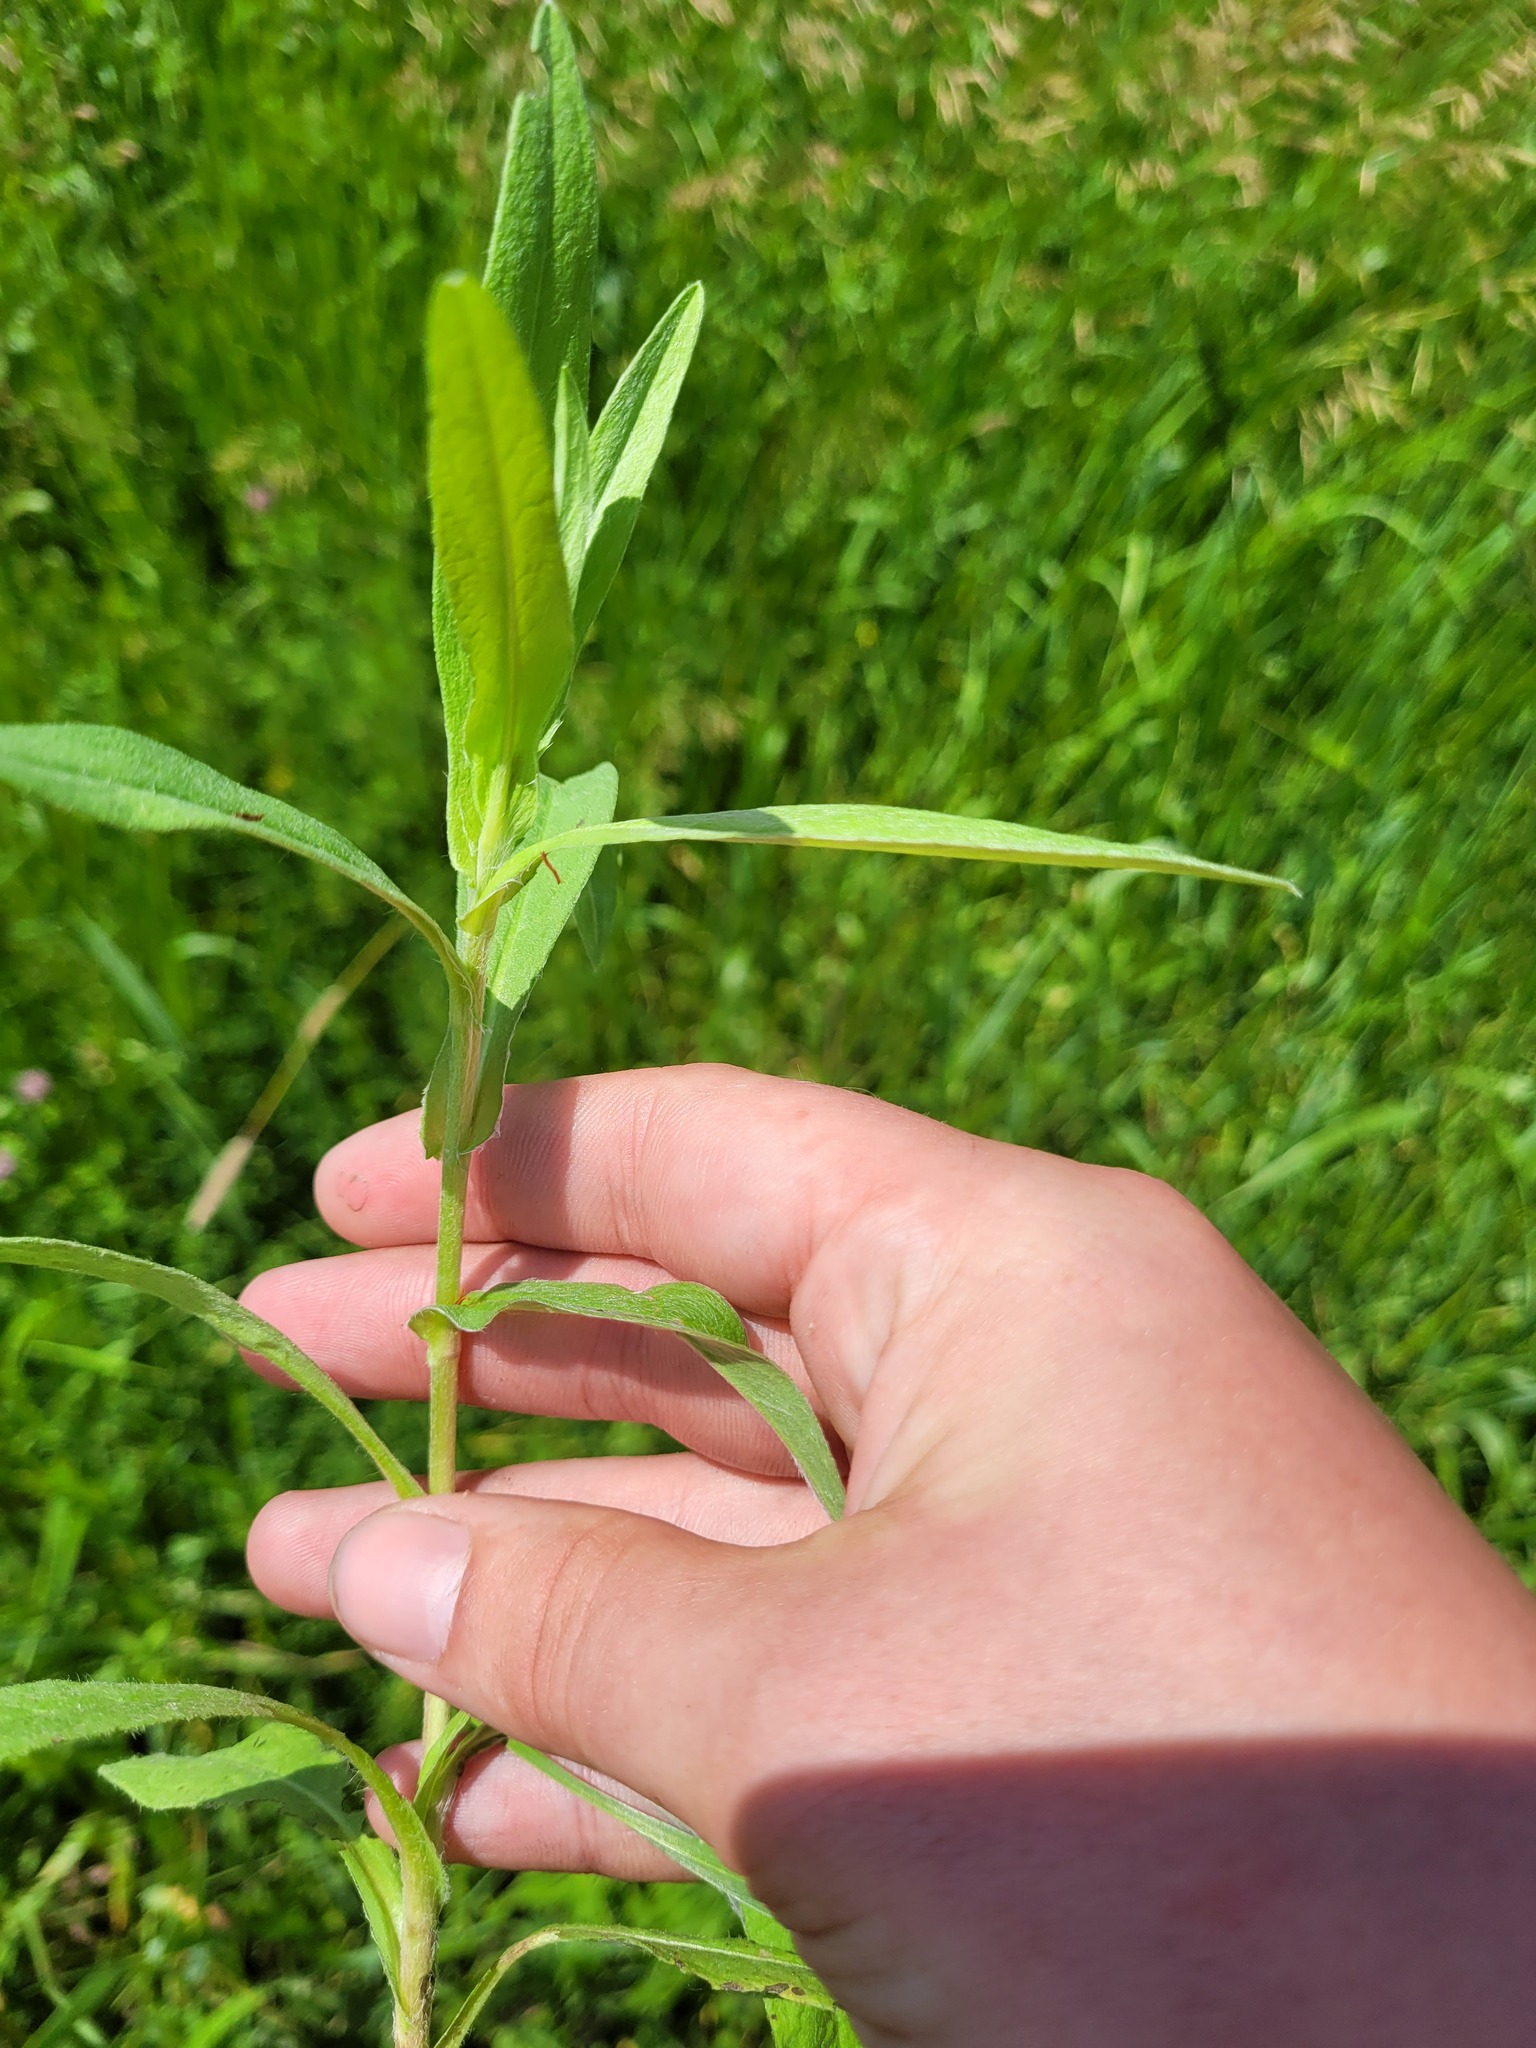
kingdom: Plantae
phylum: Tracheophyta
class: Magnoliopsida
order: Asterales
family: Asteraceae
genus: Pentanema
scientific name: Pentanema britannicum
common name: British elecampane
